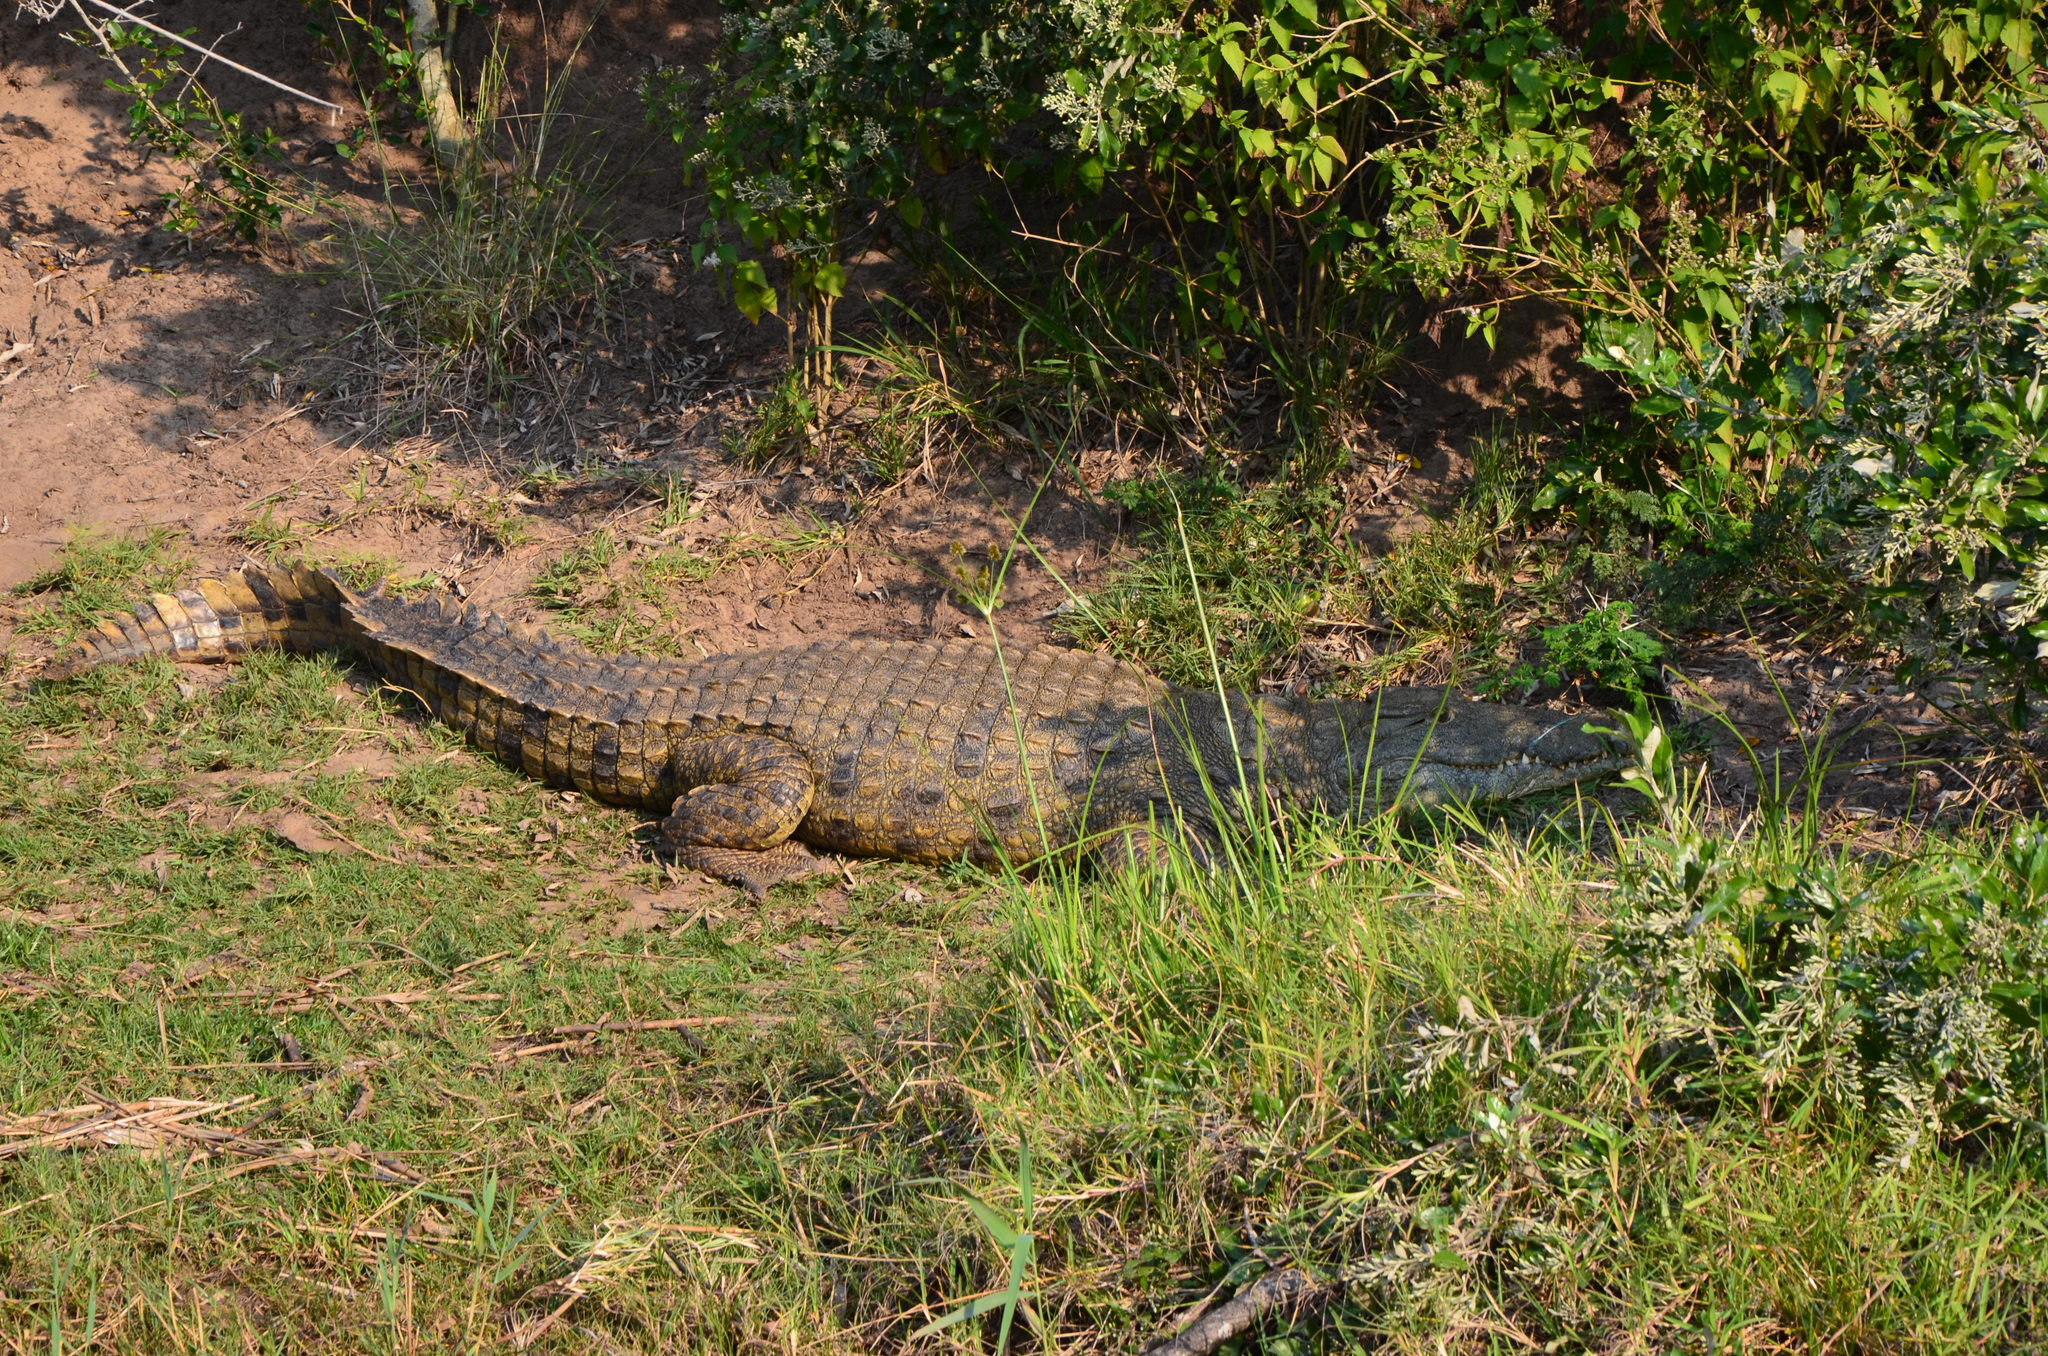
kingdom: Animalia
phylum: Chordata
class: Crocodylia
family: Crocodylidae
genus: Crocodylus
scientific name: Crocodylus niloticus
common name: Nile crocodile
